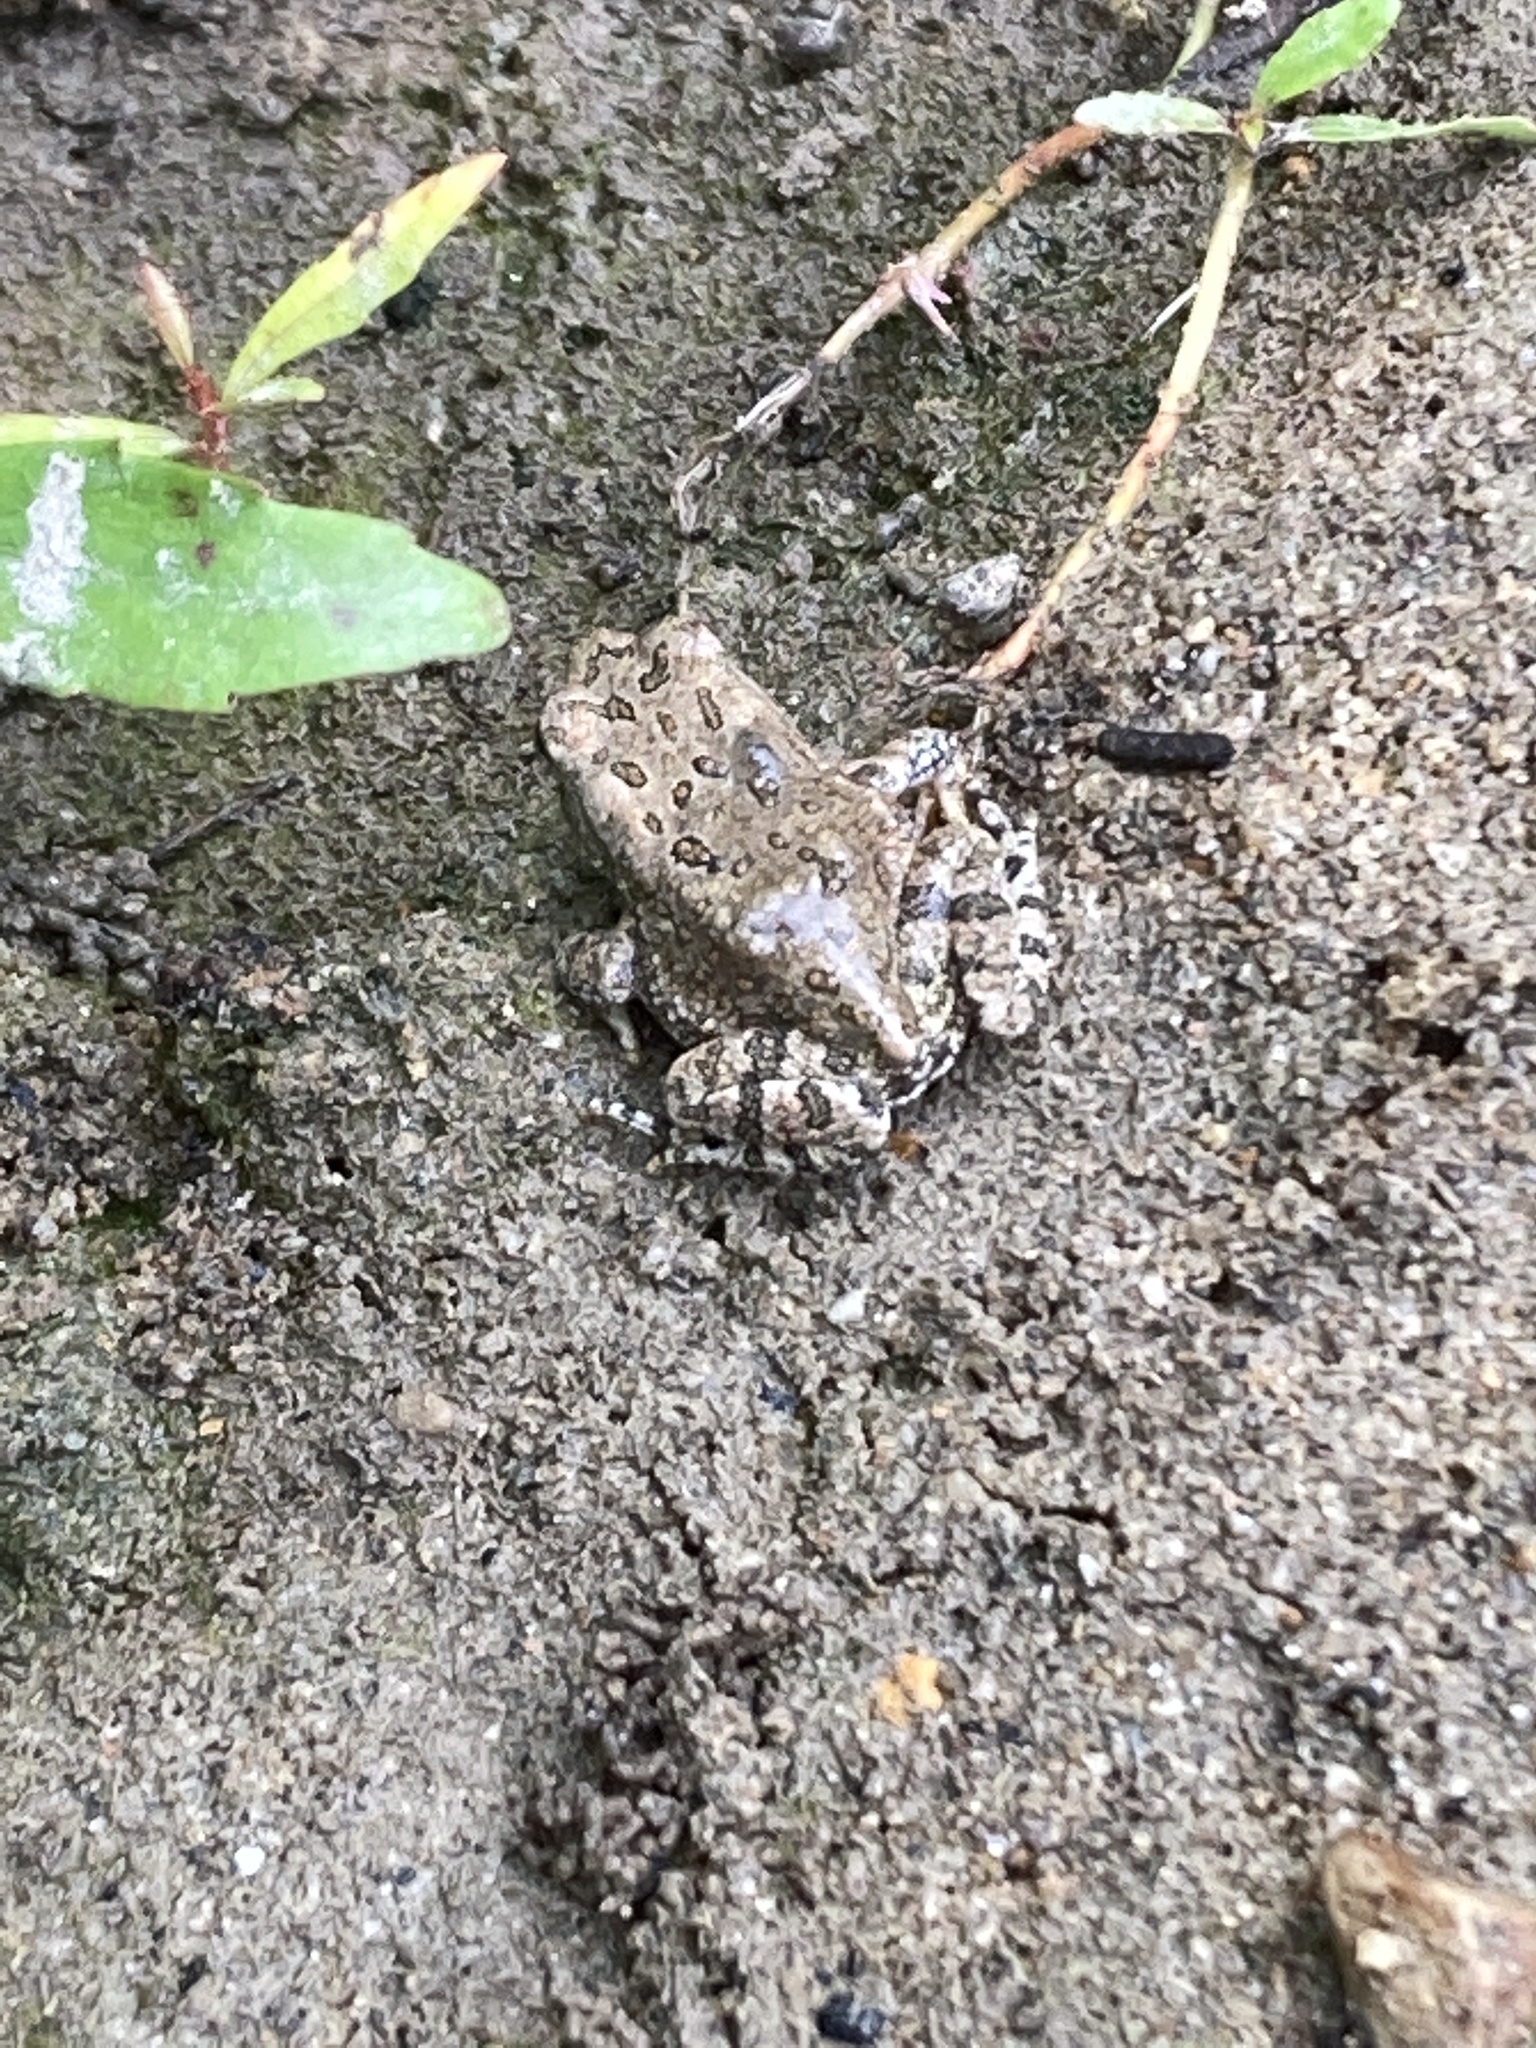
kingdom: Animalia
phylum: Chordata
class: Amphibia
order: Anura
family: Bufonidae
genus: Anaxyrus
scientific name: Anaxyrus fowleri
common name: Fowler's toad
